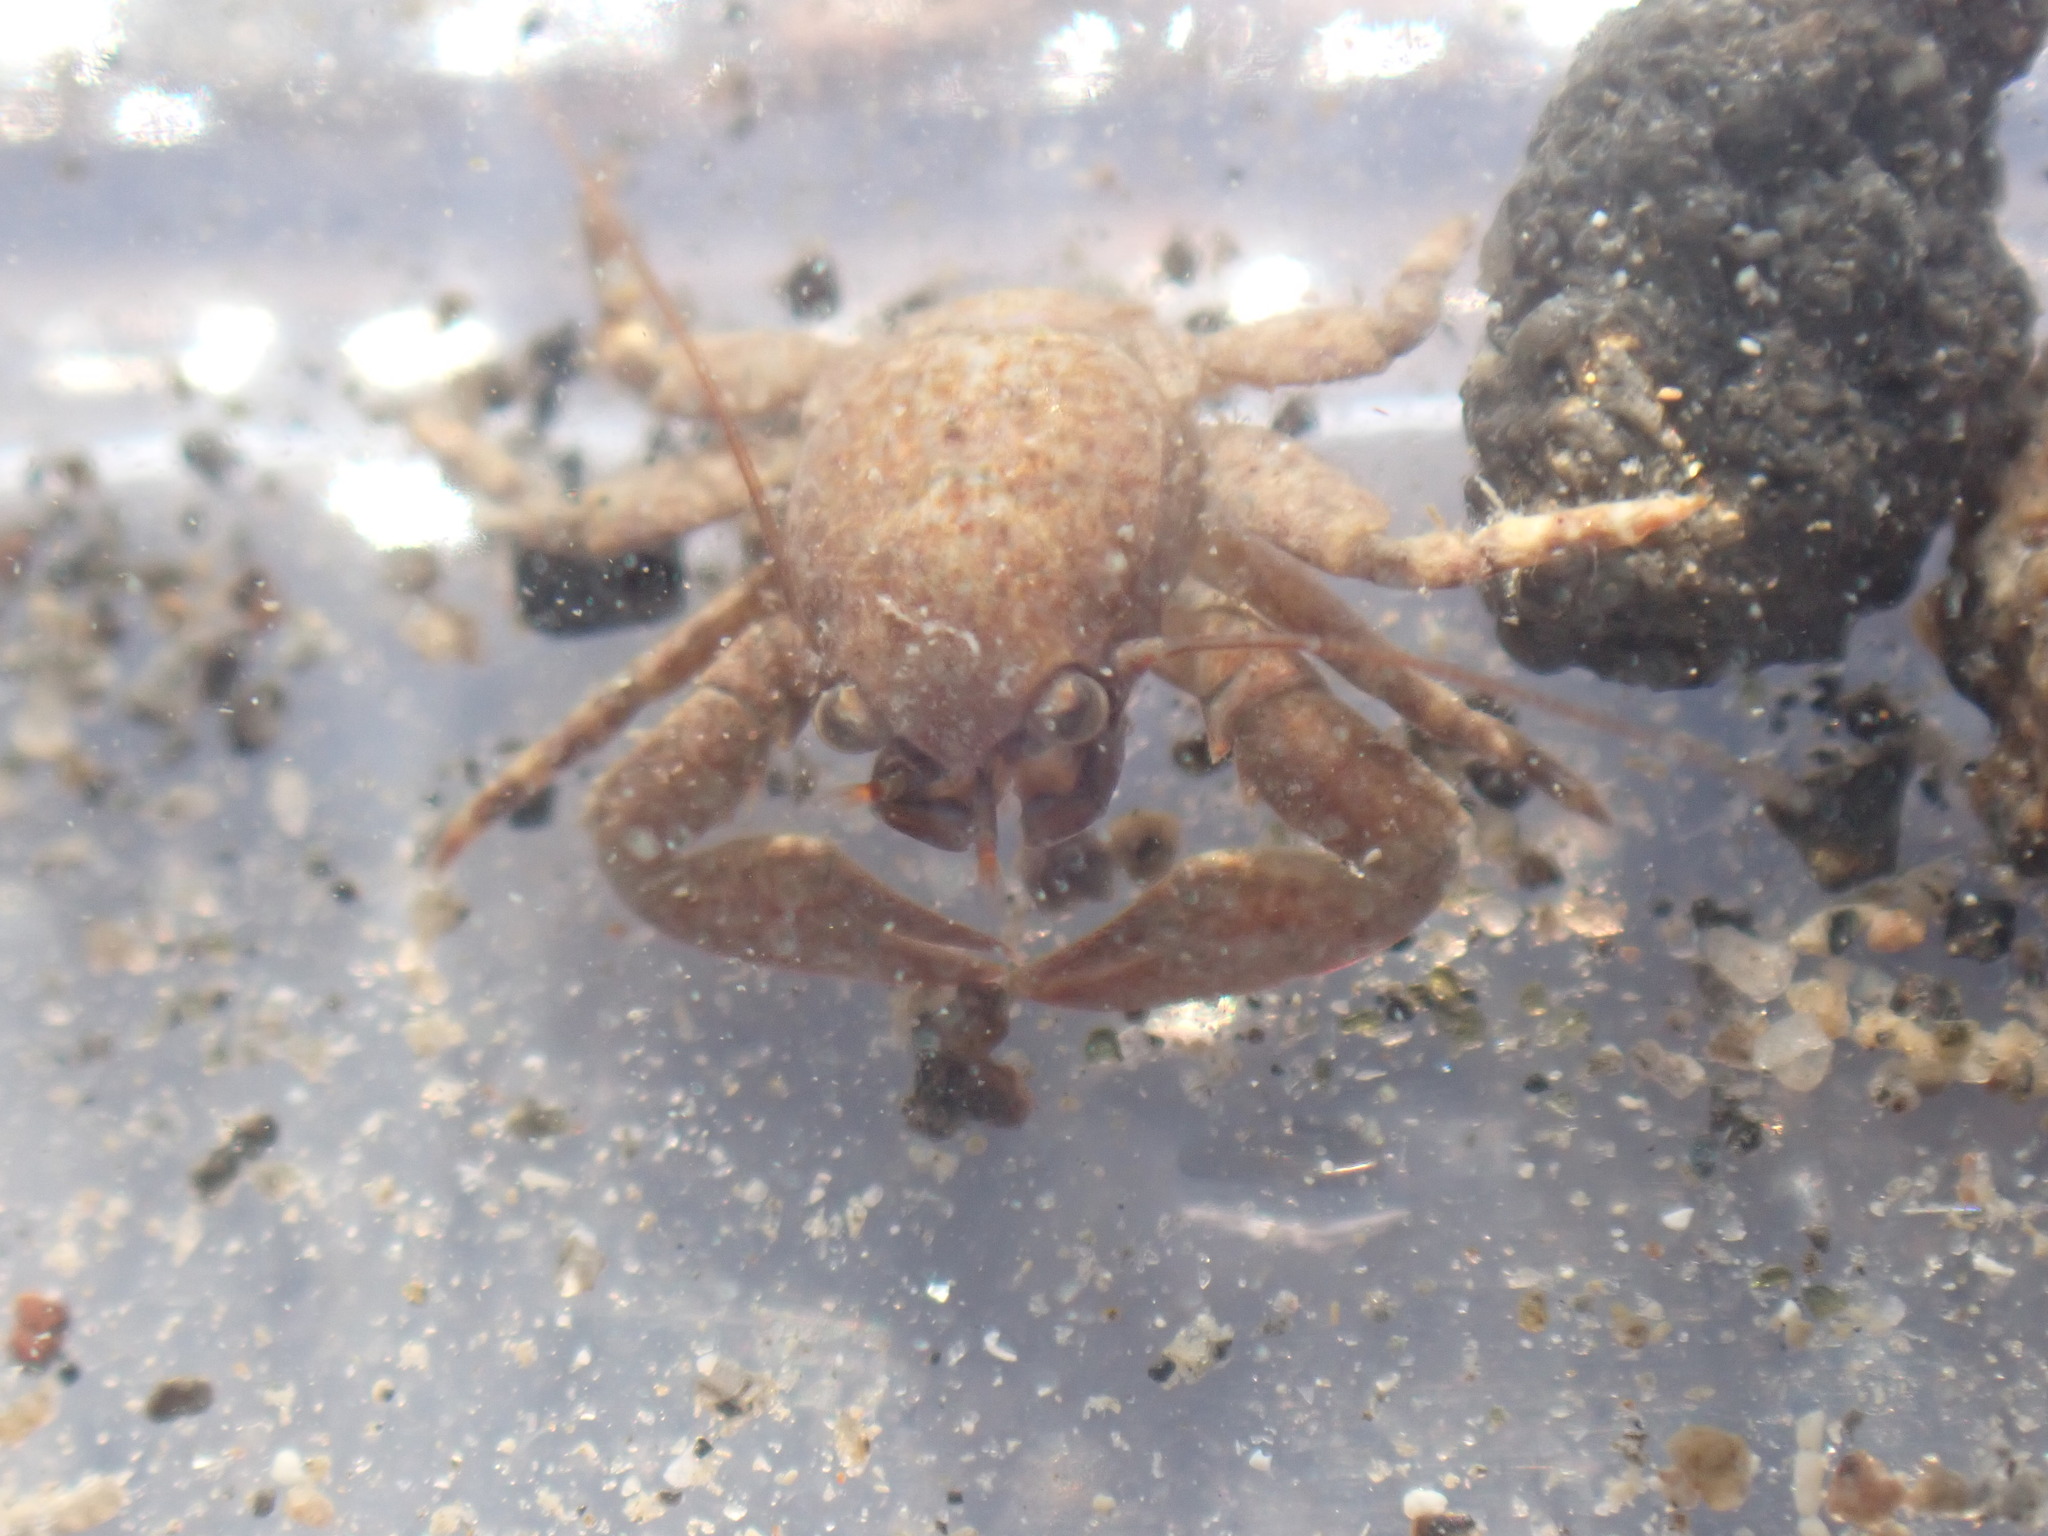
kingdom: Animalia
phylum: Arthropoda
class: Malacostraca
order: Decapoda
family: Porcellanidae
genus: Petrolisthes
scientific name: Petrolisthes elongatus
